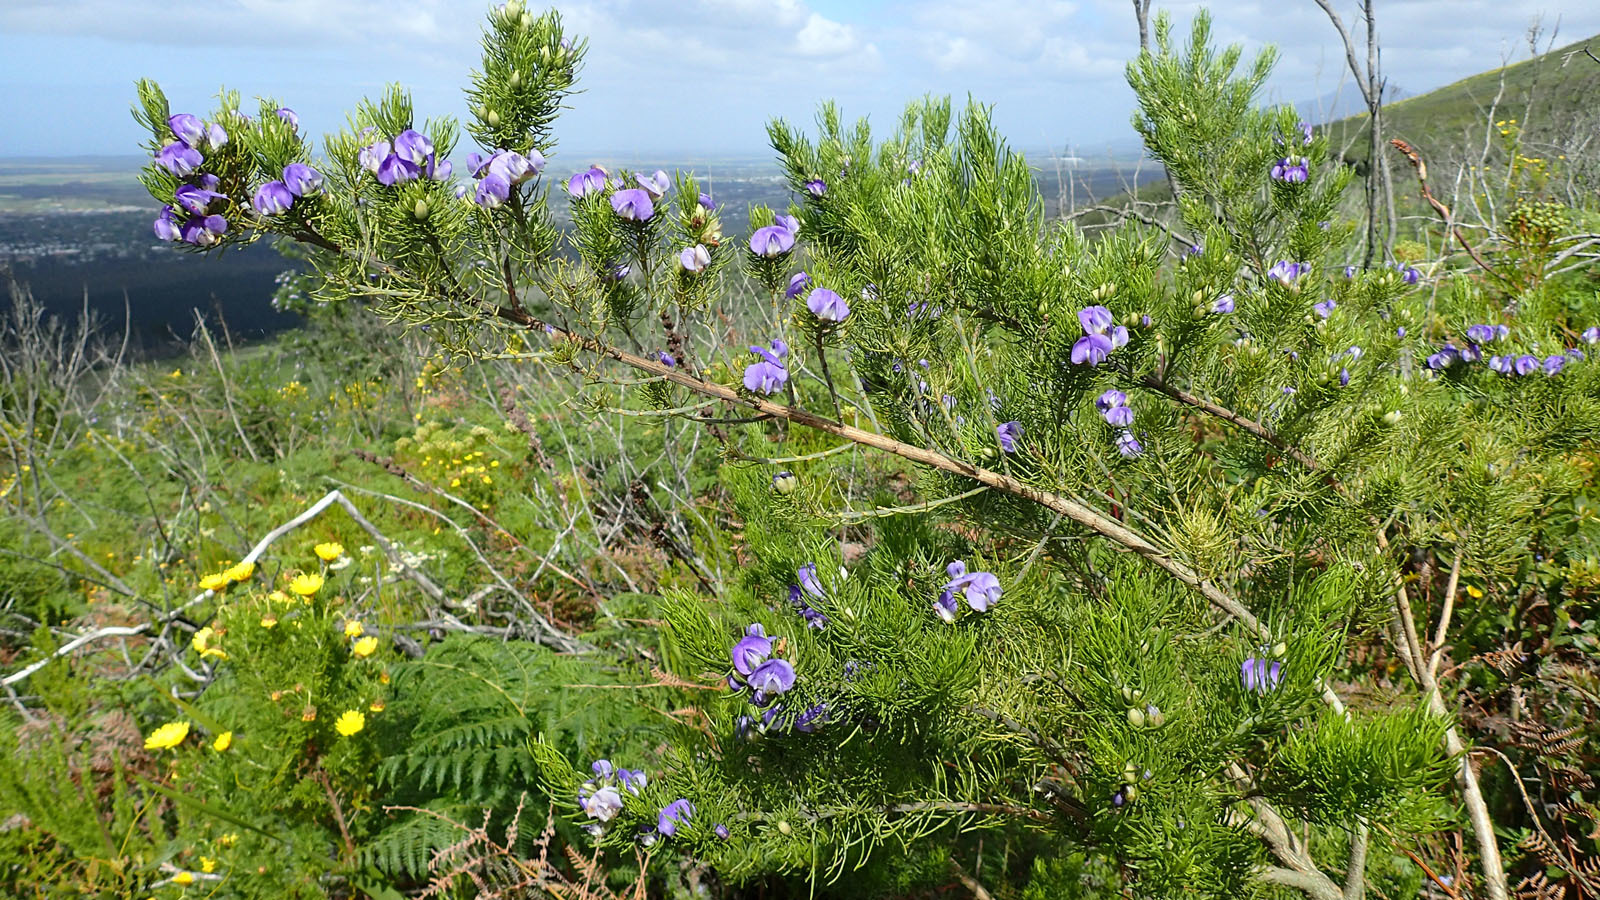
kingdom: Plantae
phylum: Tracheophyta
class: Magnoliopsida
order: Fabales
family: Fabaceae
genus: Psoralea
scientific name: Psoralea speciosa
